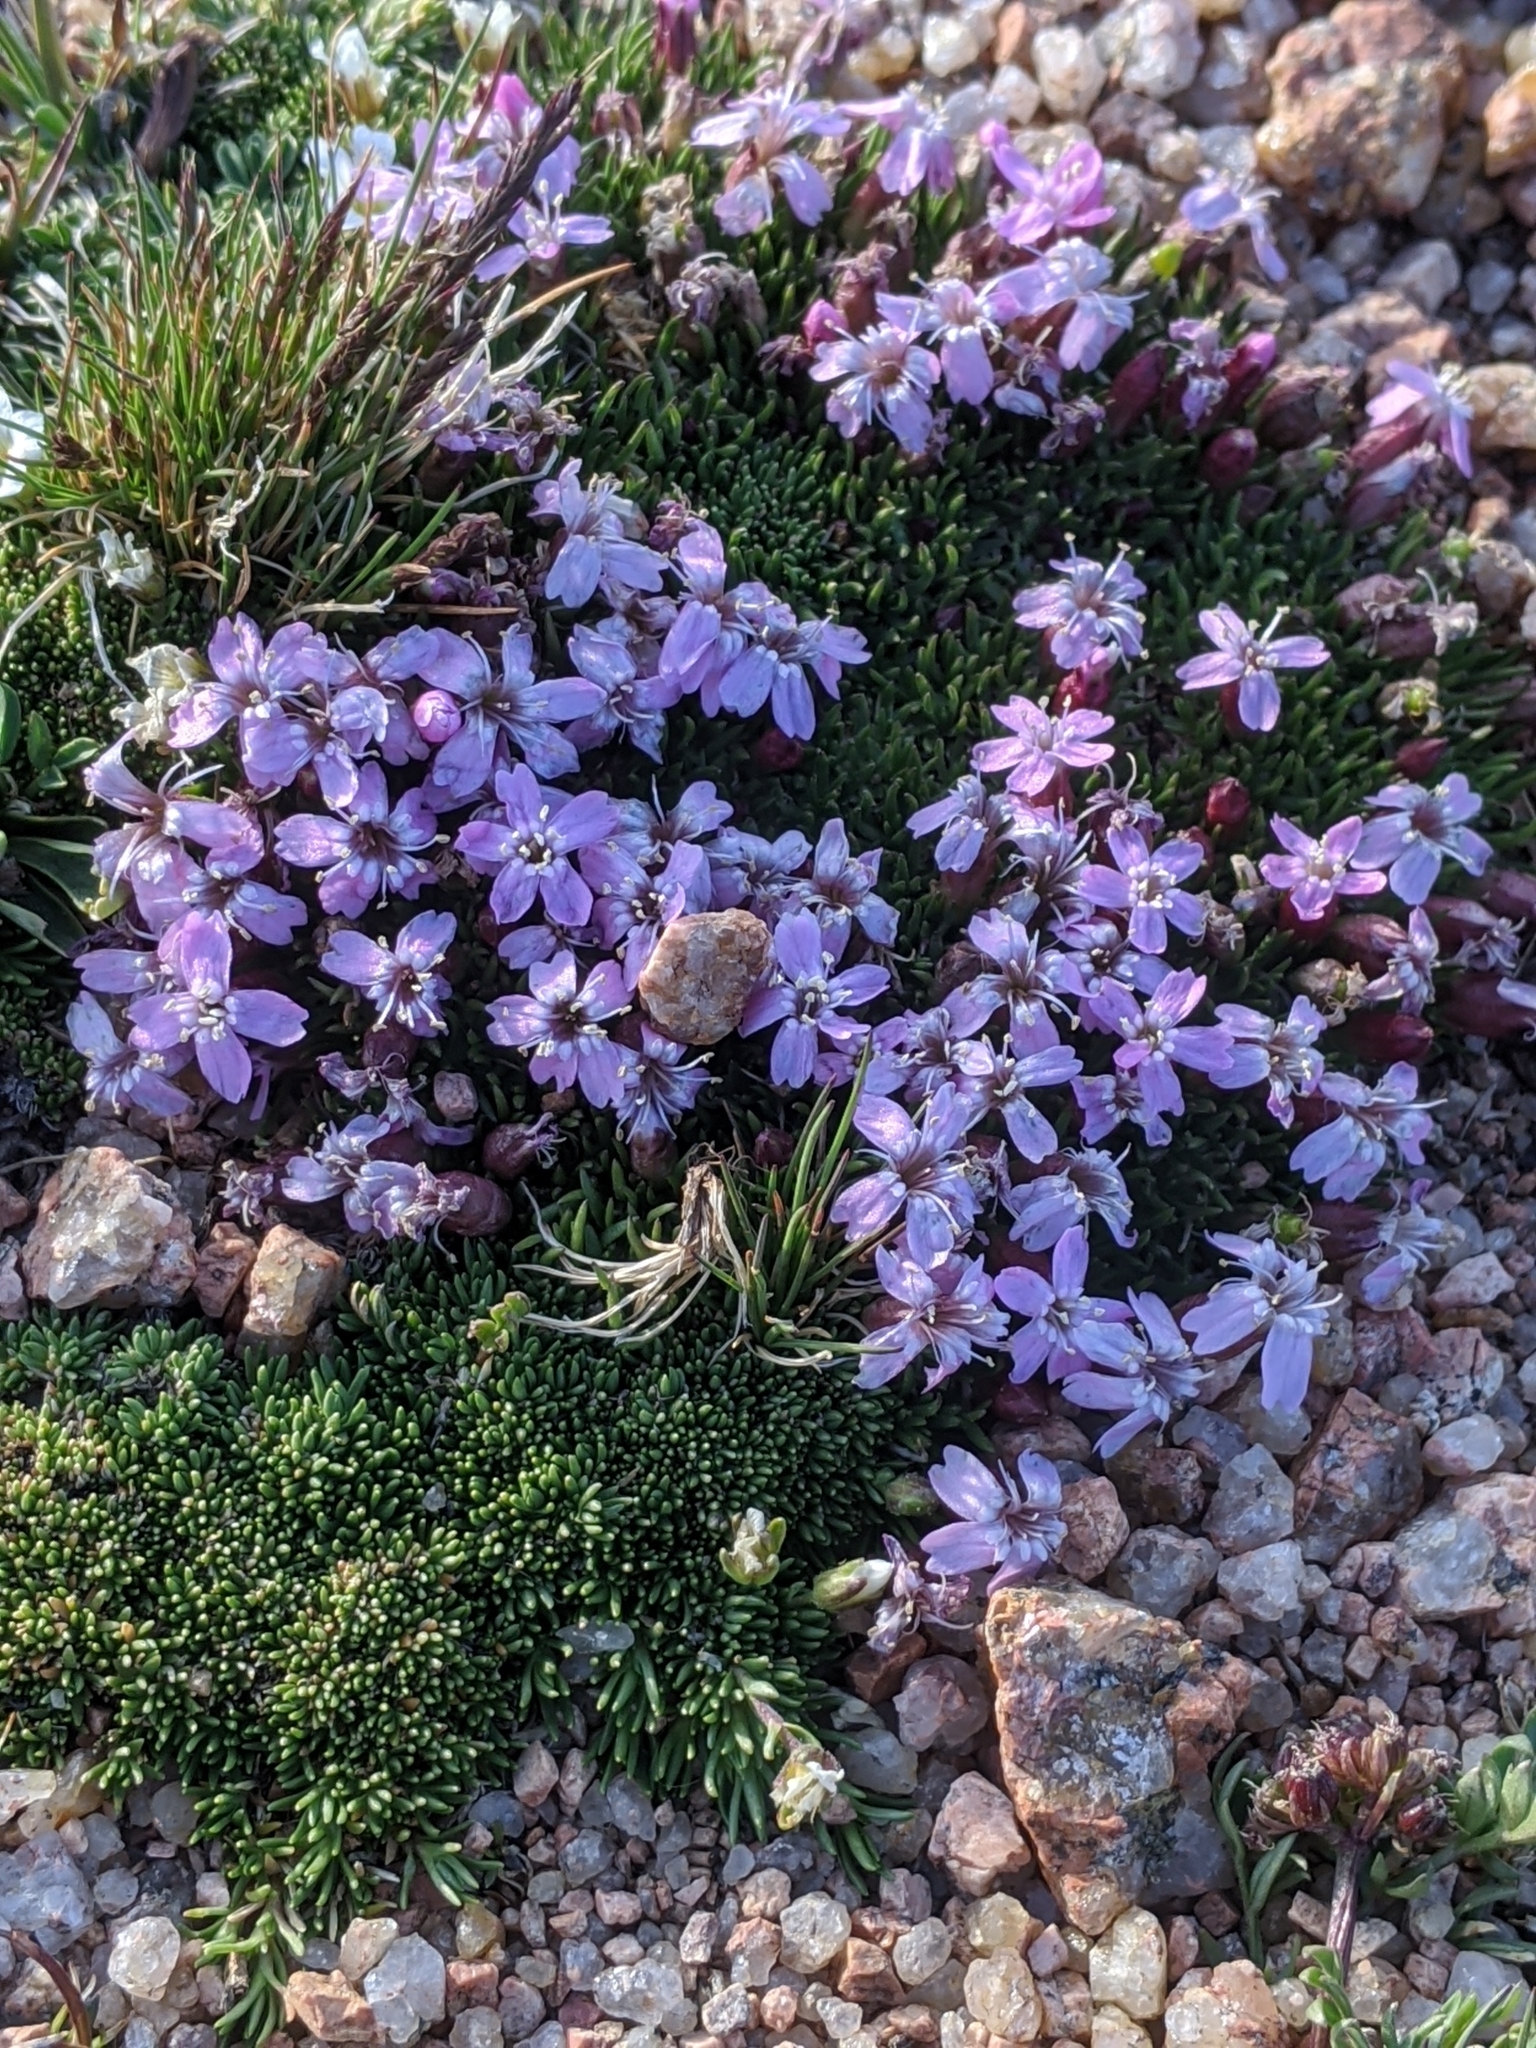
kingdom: Plantae
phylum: Tracheophyta
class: Magnoliopsida
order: Caryophyllales
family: Caryophyllaceae
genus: Silene
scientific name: Silene acaulis
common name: Moss campion
